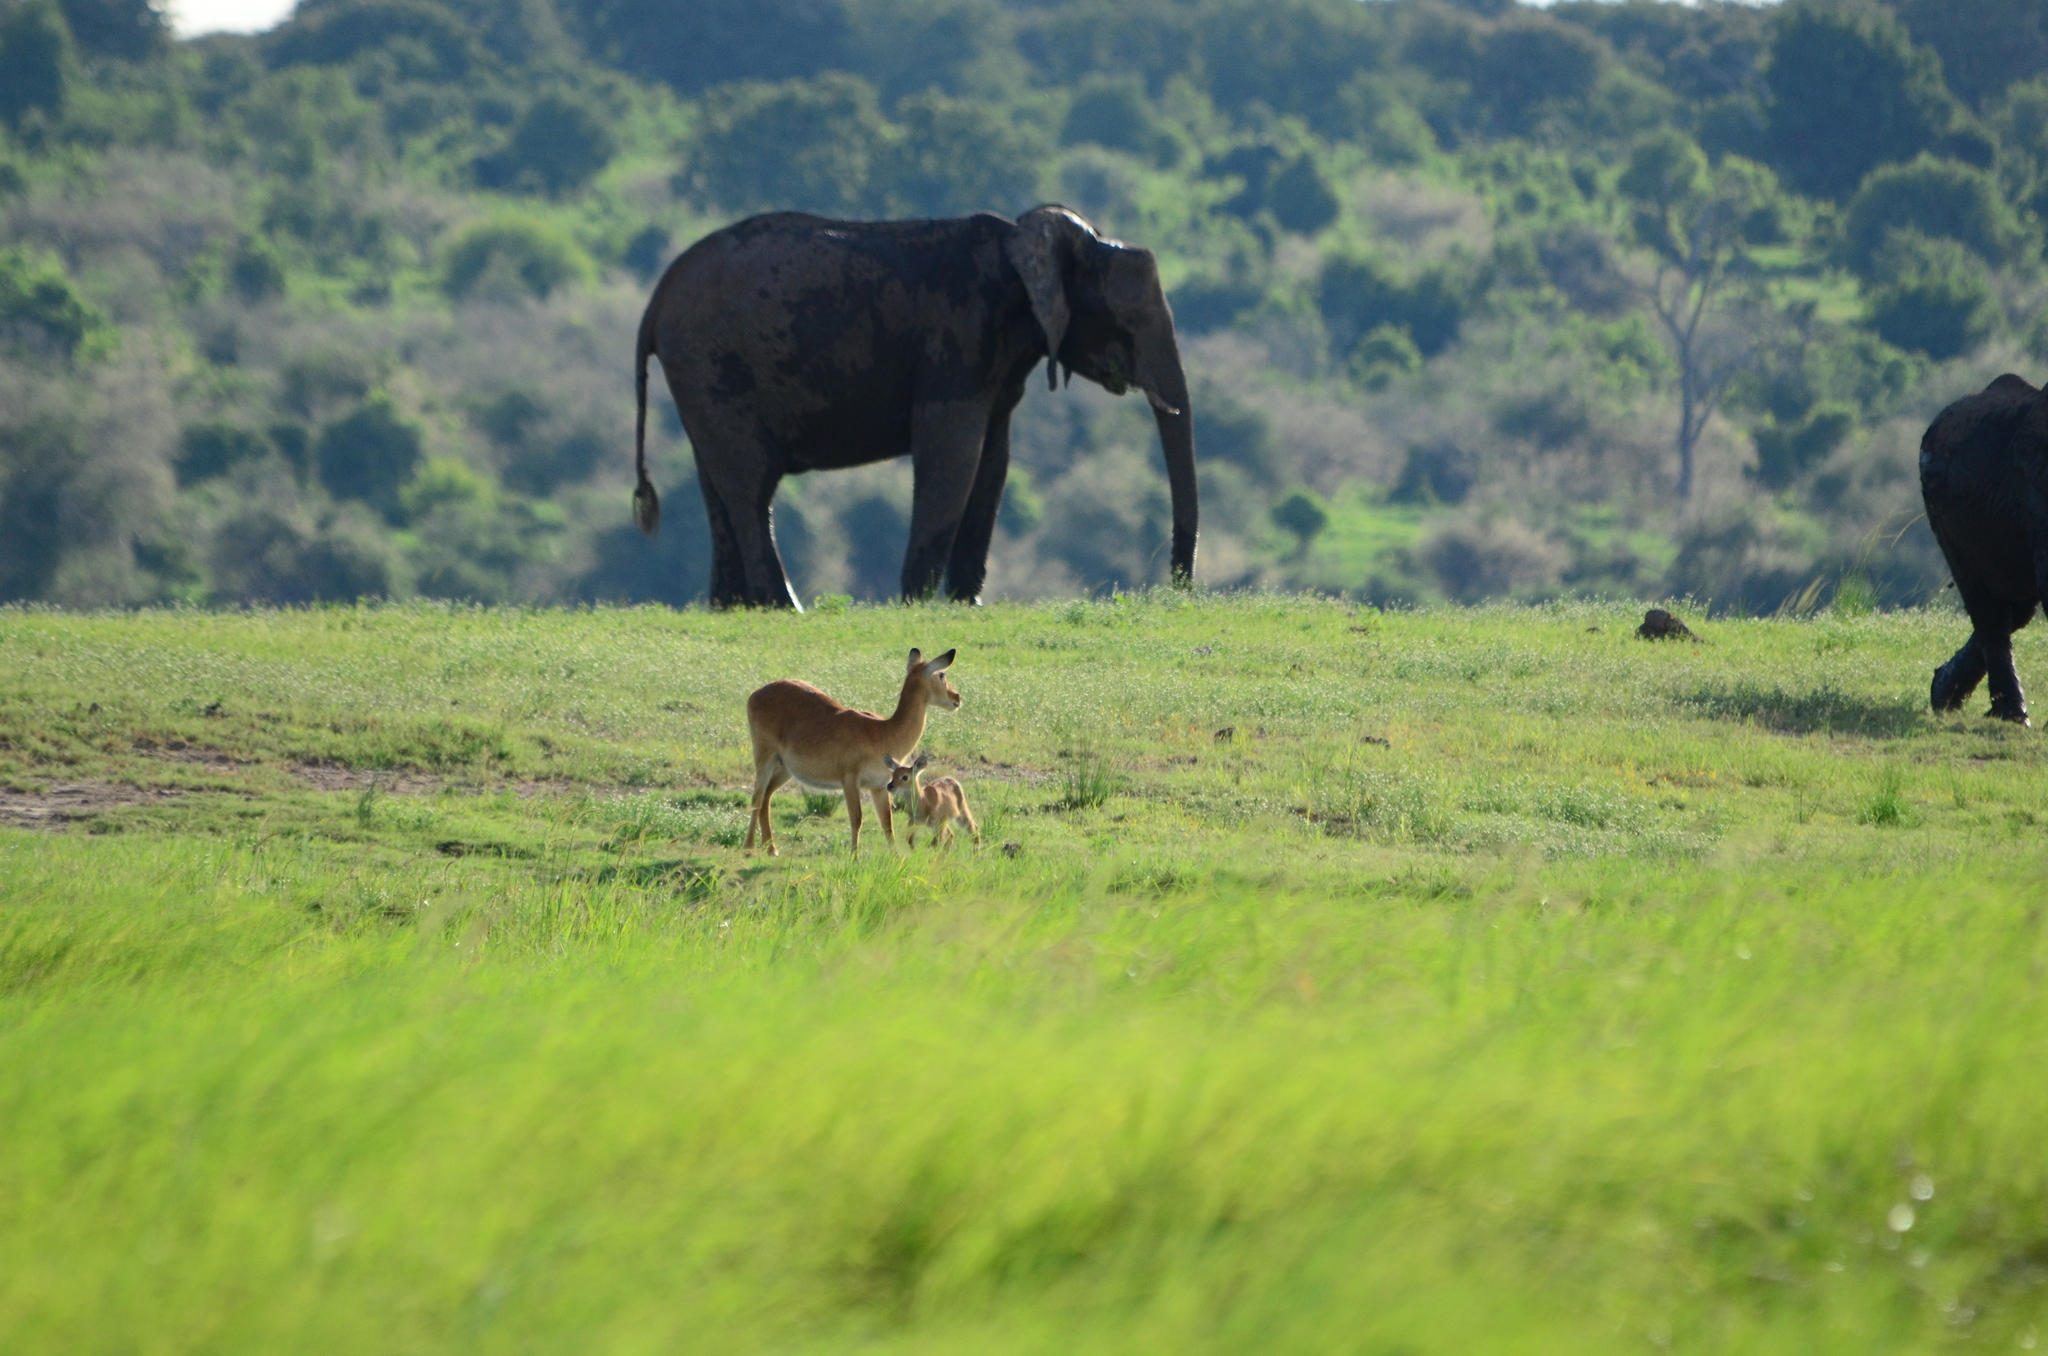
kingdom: Animalia
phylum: Chordata
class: Mammalia
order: Artiodactyla
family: Bovidae
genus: Kobus
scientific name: Kobus vardonii
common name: Puku
